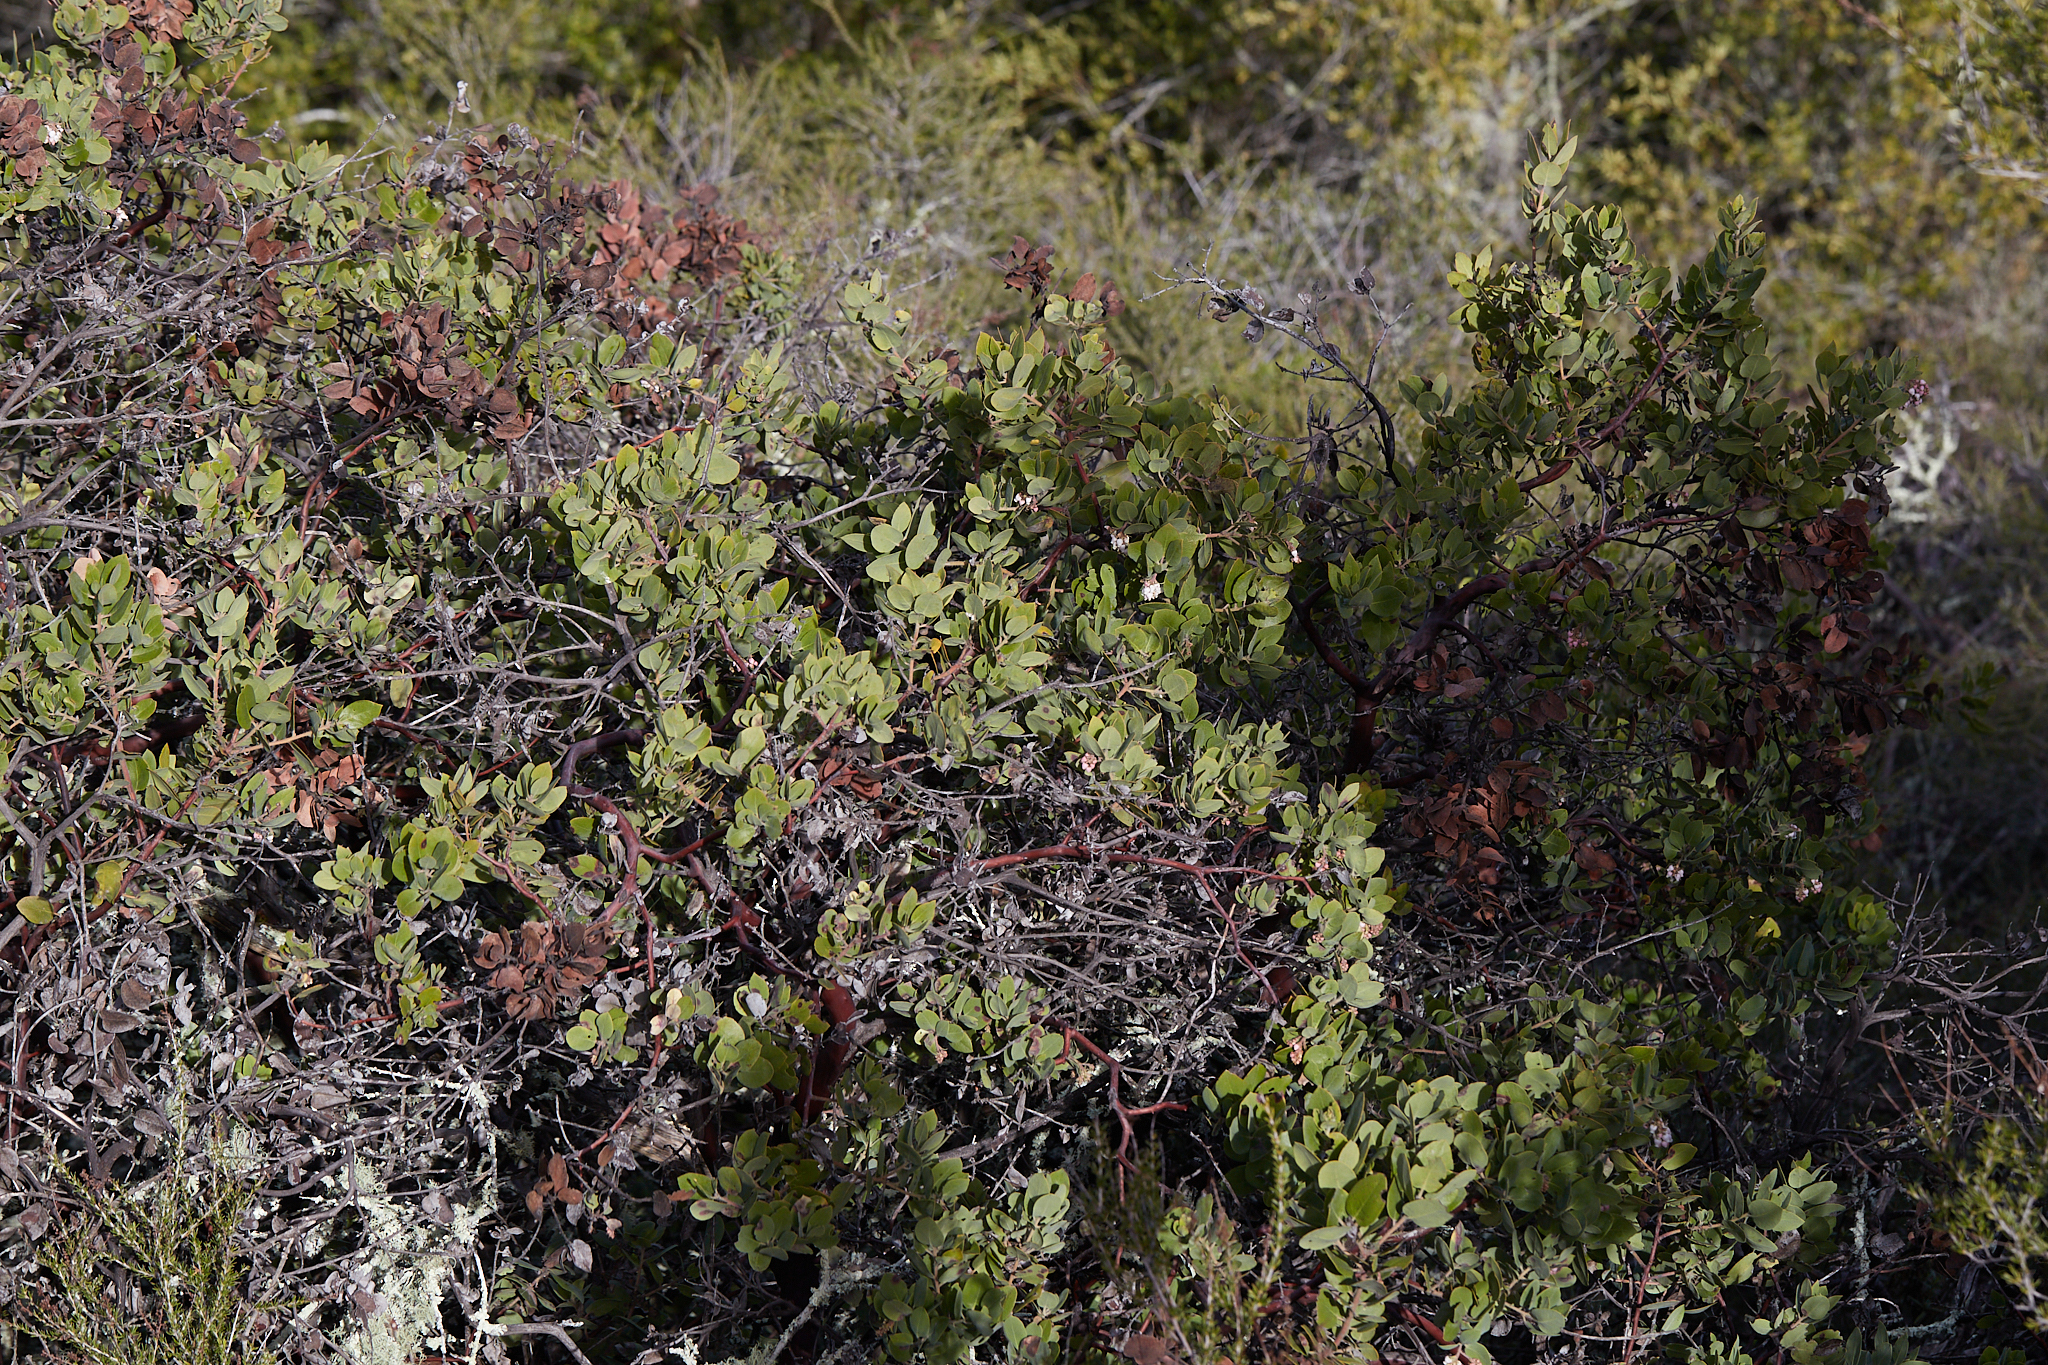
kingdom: Plantae
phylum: Tracheophyta
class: Magnoliopsida
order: Ericales
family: Ericaceae
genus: Arctostaphylos
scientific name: Arctostaphylos crustacea
